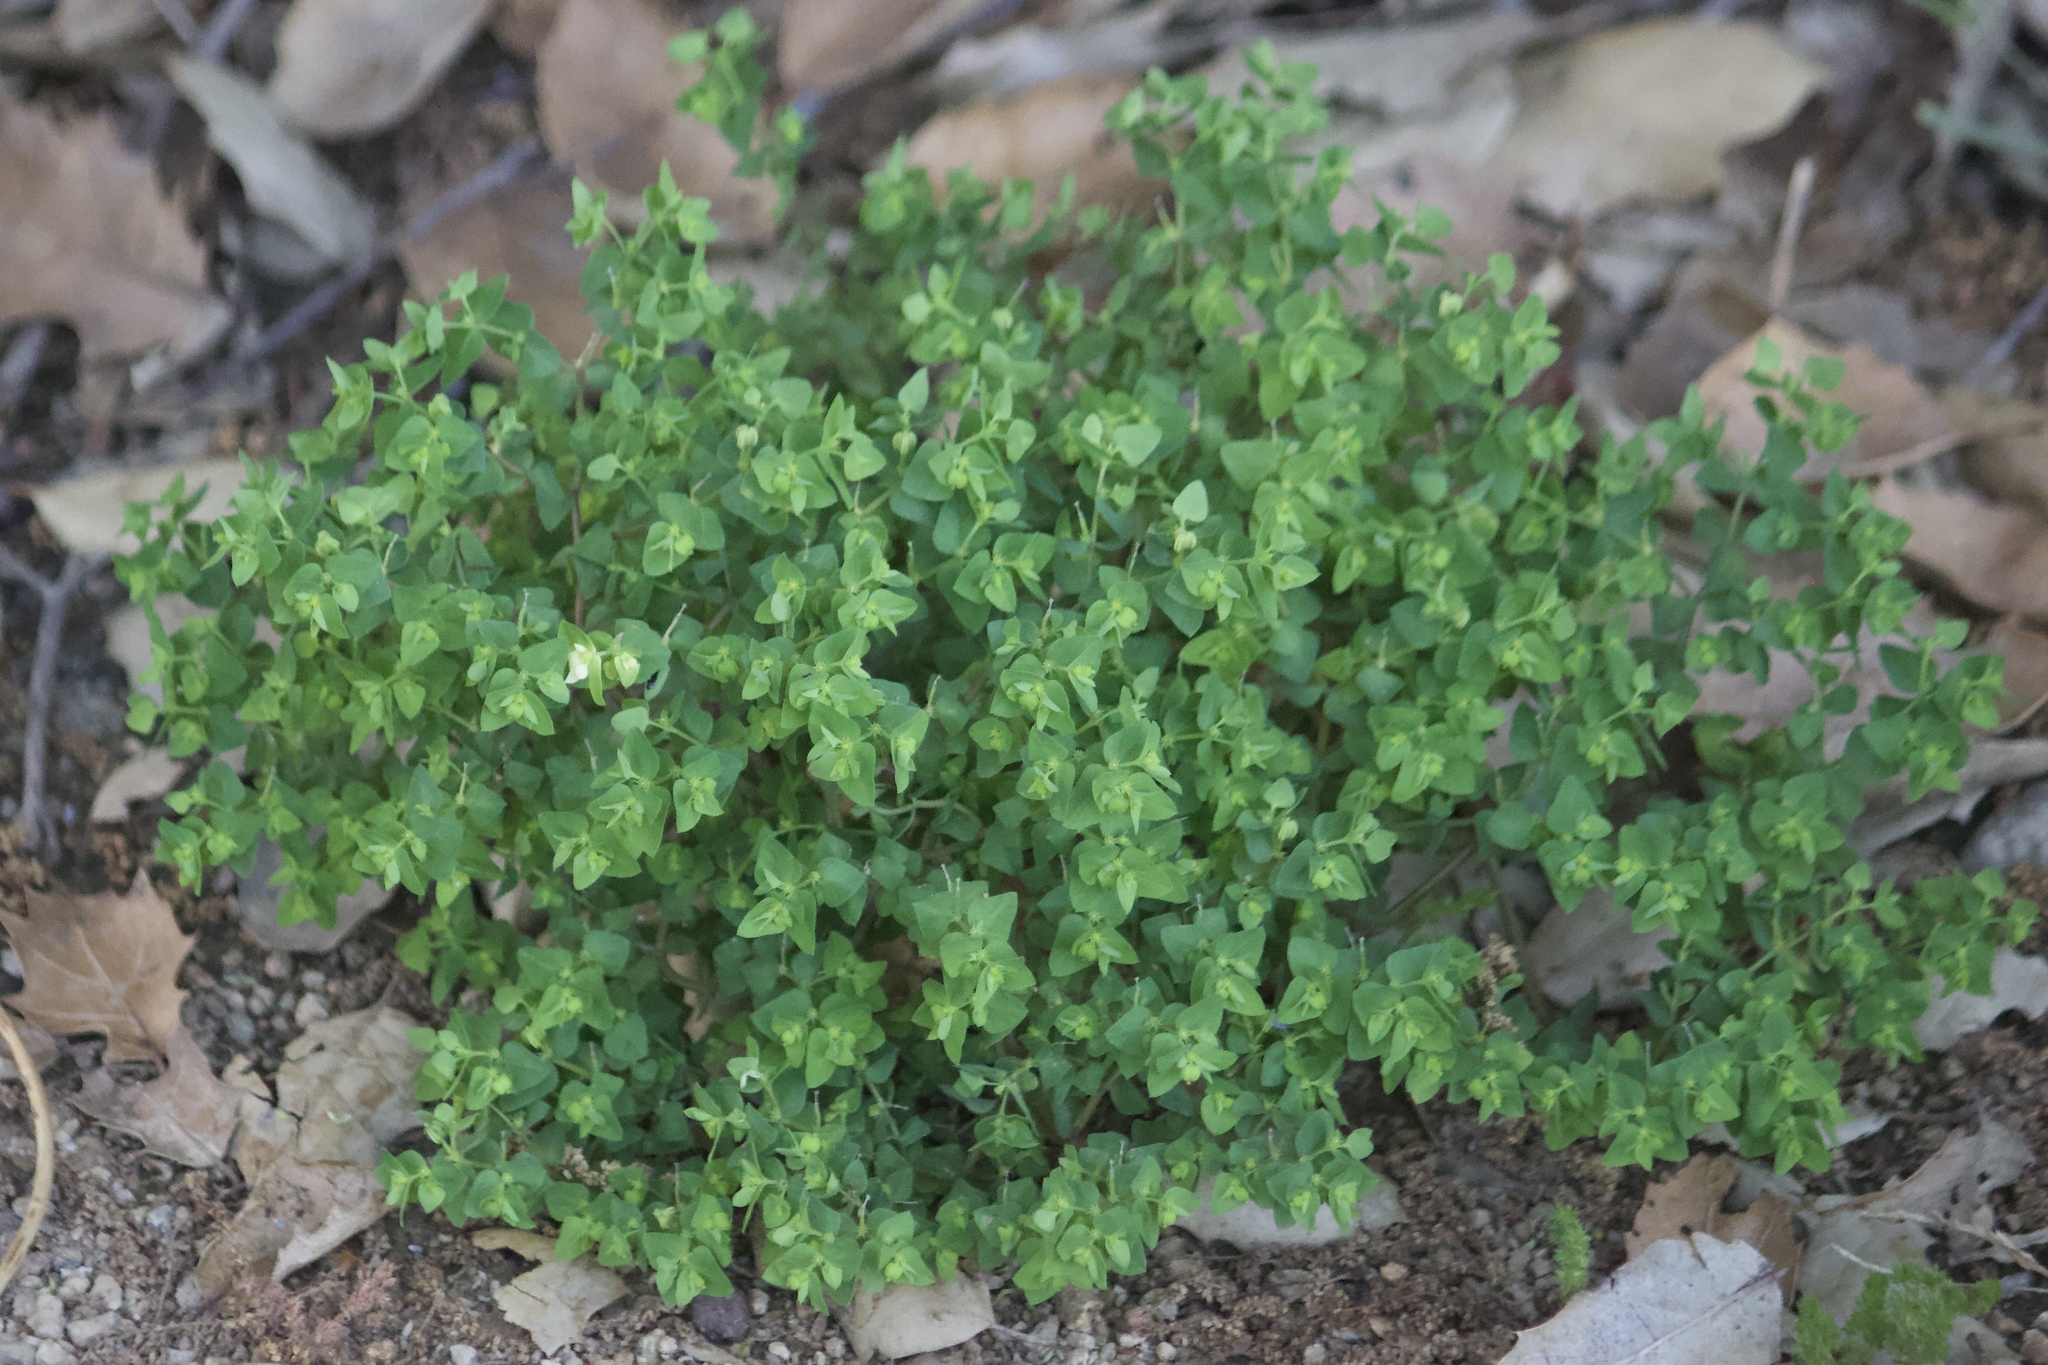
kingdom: Plantae
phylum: Tracheophyta
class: Magnoliopsida
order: Malpighiales
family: Euphorbiaceae
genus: Euphorbia
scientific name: Euphorbia peplus
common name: Petty spurge
